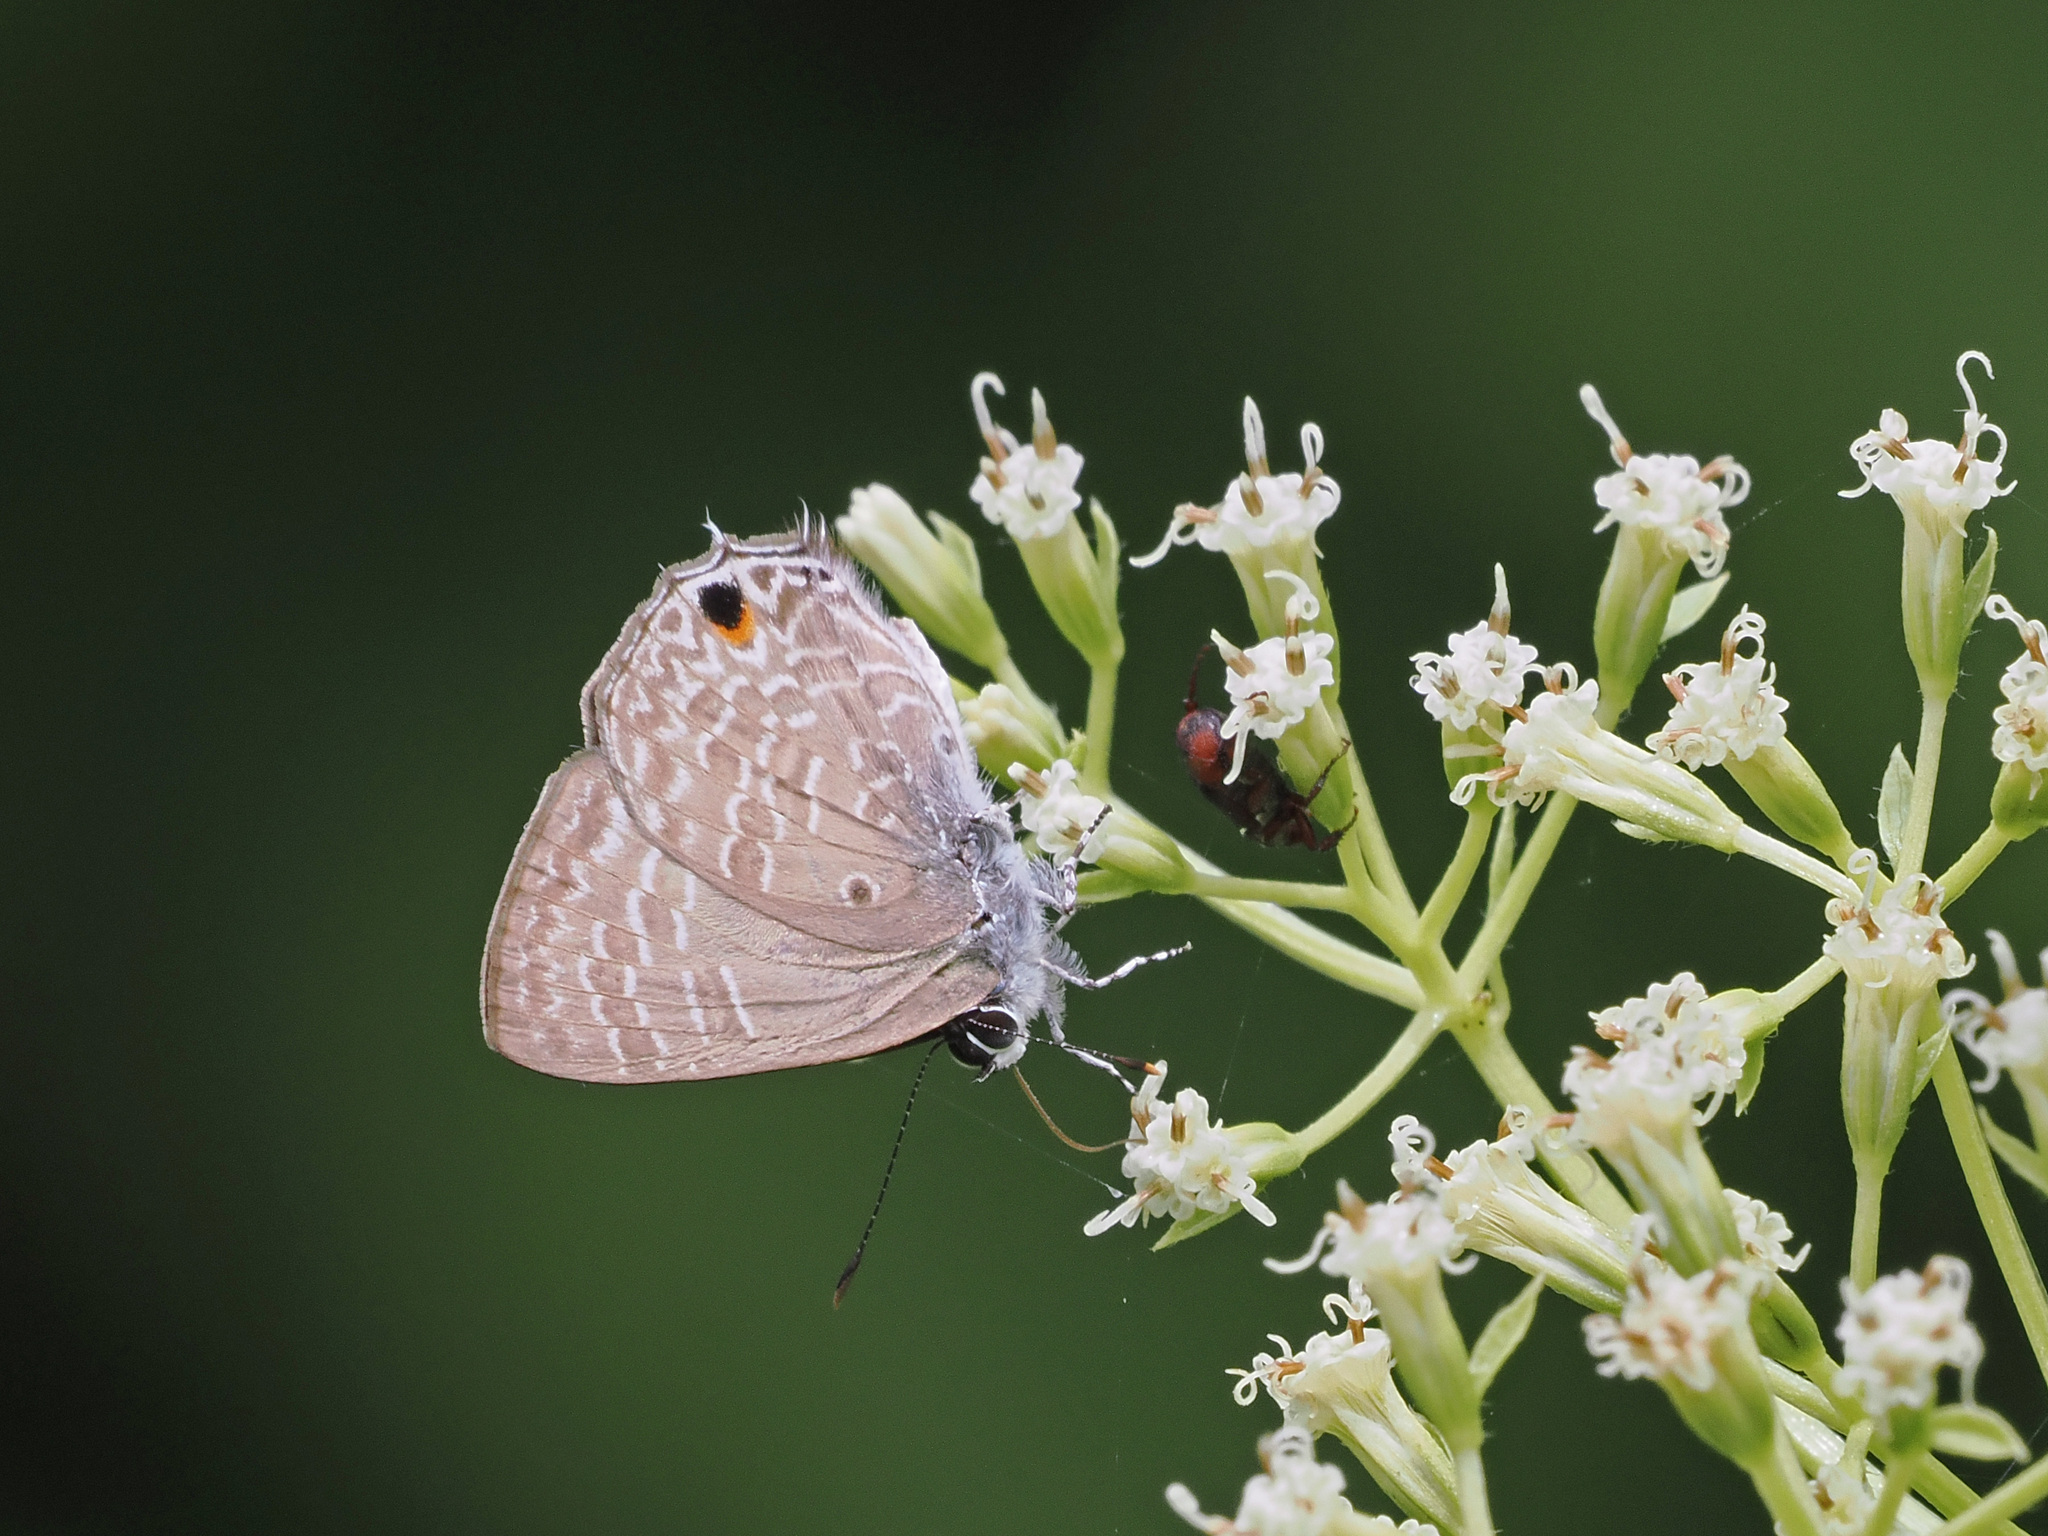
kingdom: Animalia
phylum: Arthropoda
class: Insecta
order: Lepidoptera
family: Lycaenidae
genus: Anthene
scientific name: Anthene lycaenina
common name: Pointed ciliate blue
